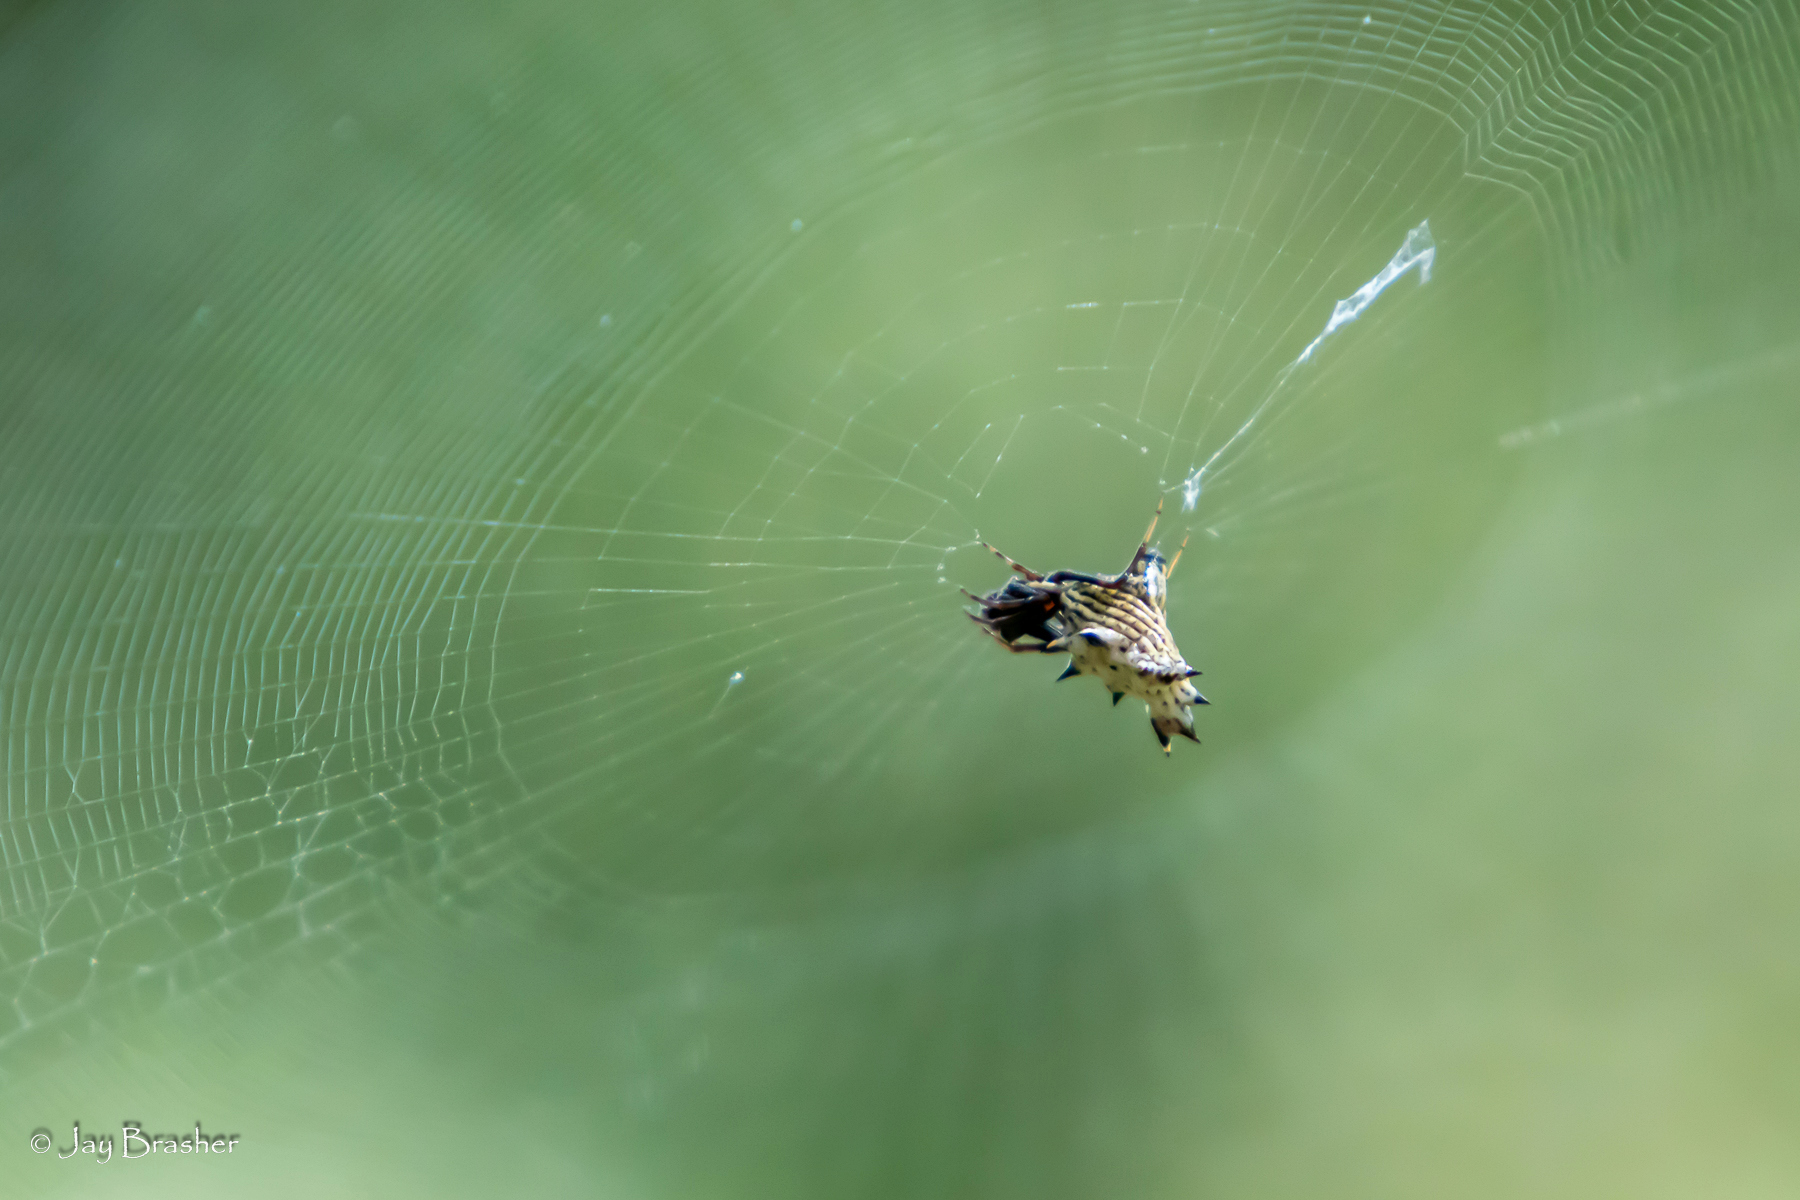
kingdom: Animalia
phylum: Arthropoda
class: Arachnida
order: Araneae
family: Araneidae
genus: Micrathena
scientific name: Micrathena gracilis
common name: Orb weavers
